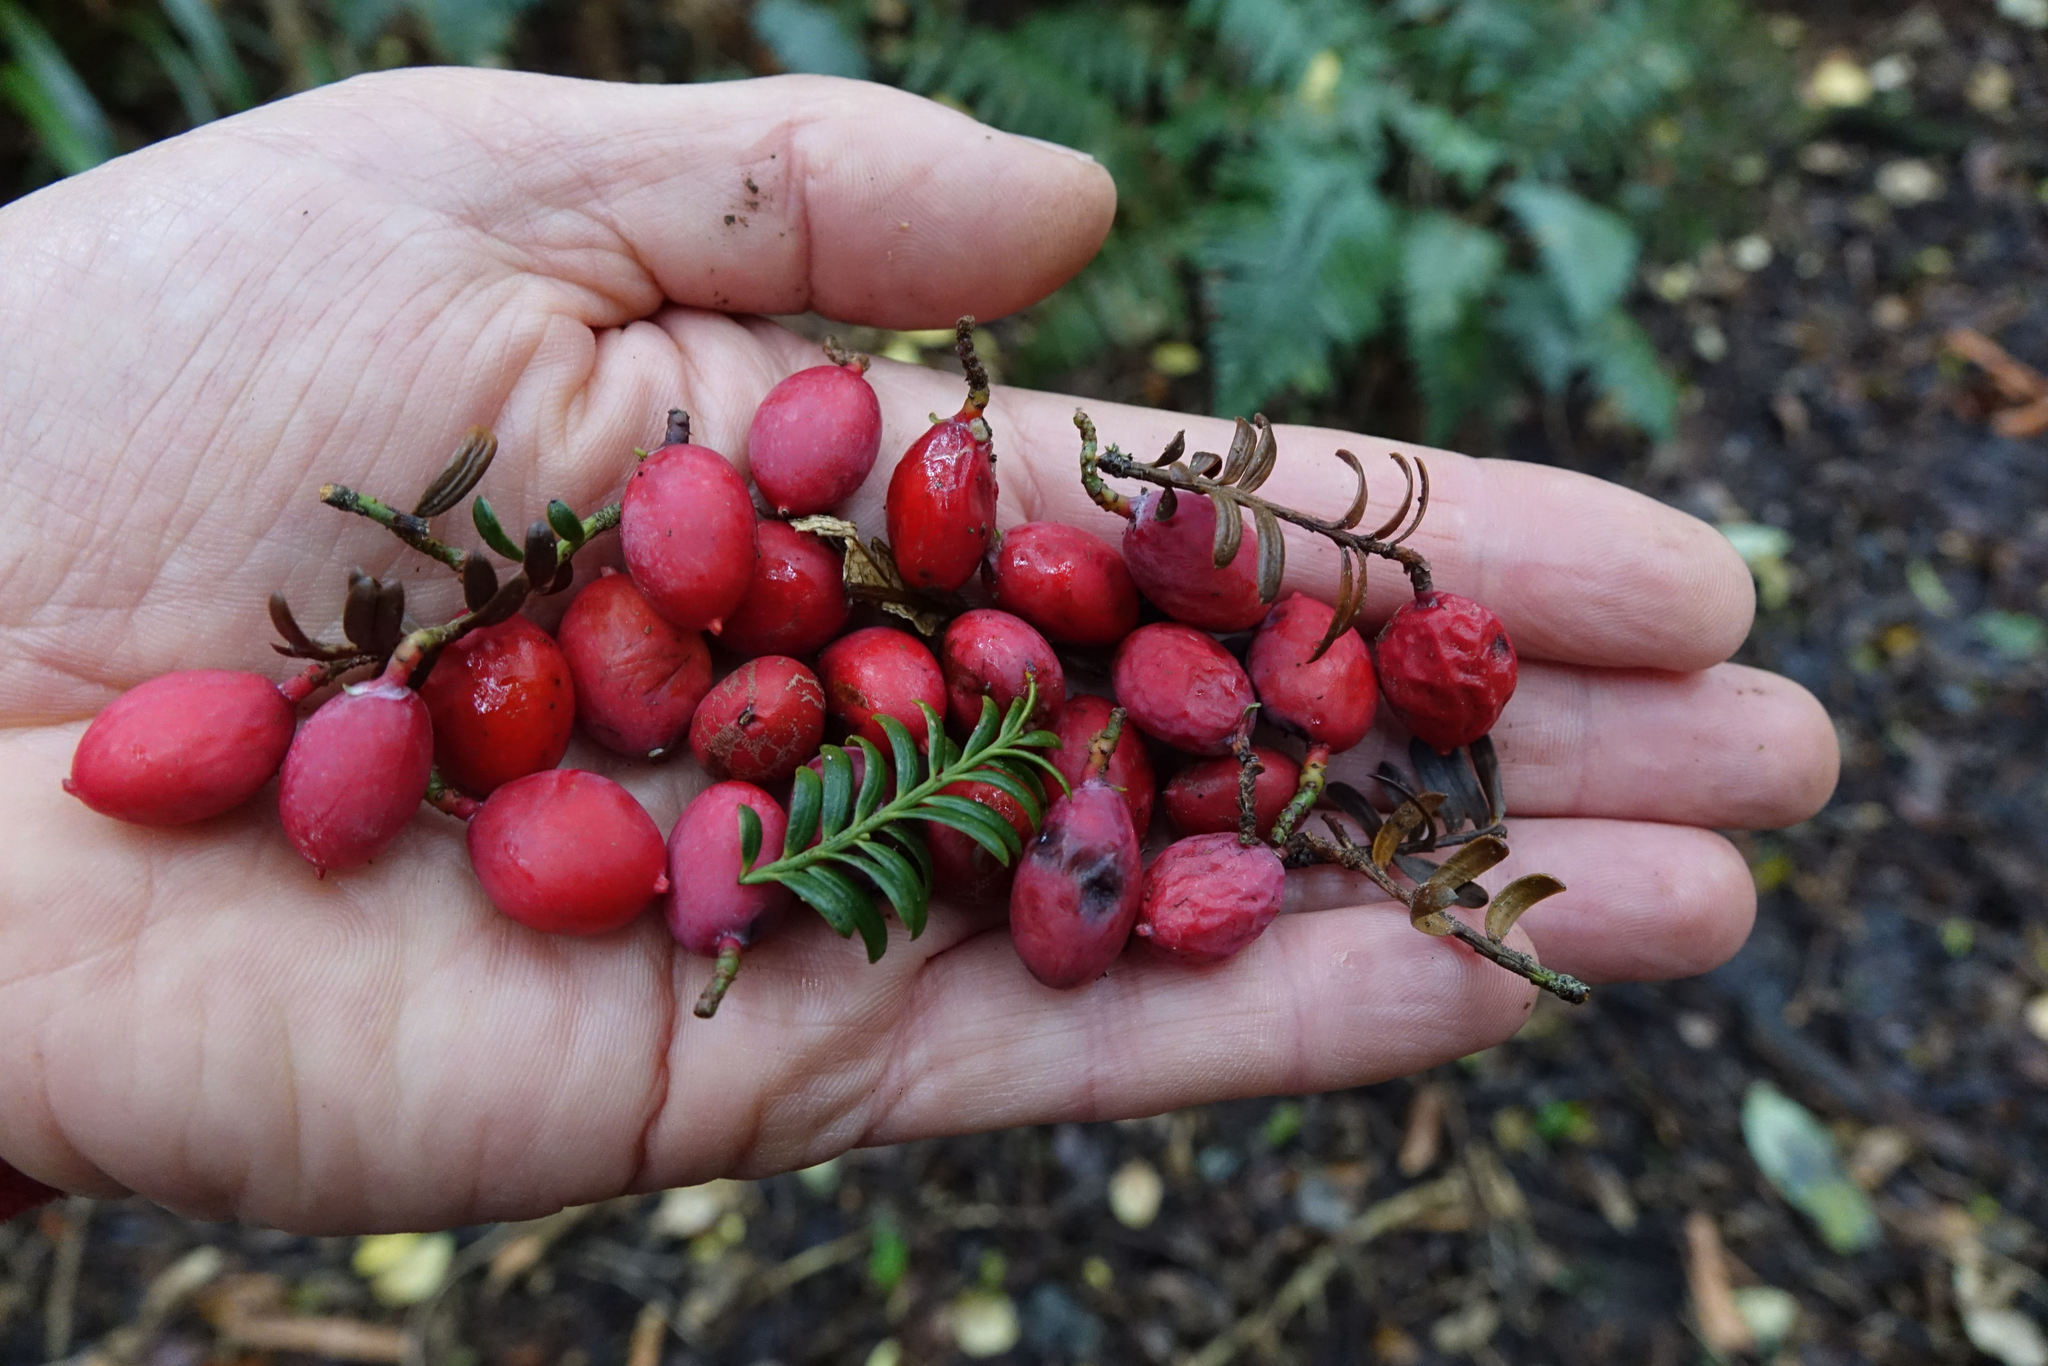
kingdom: Plantae
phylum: Tracheophyta
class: Pinopsida
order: Pinales
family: Podocarpaceae
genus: Prumnopitys
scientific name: Prumnopitys ferruginea
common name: Brown pine
